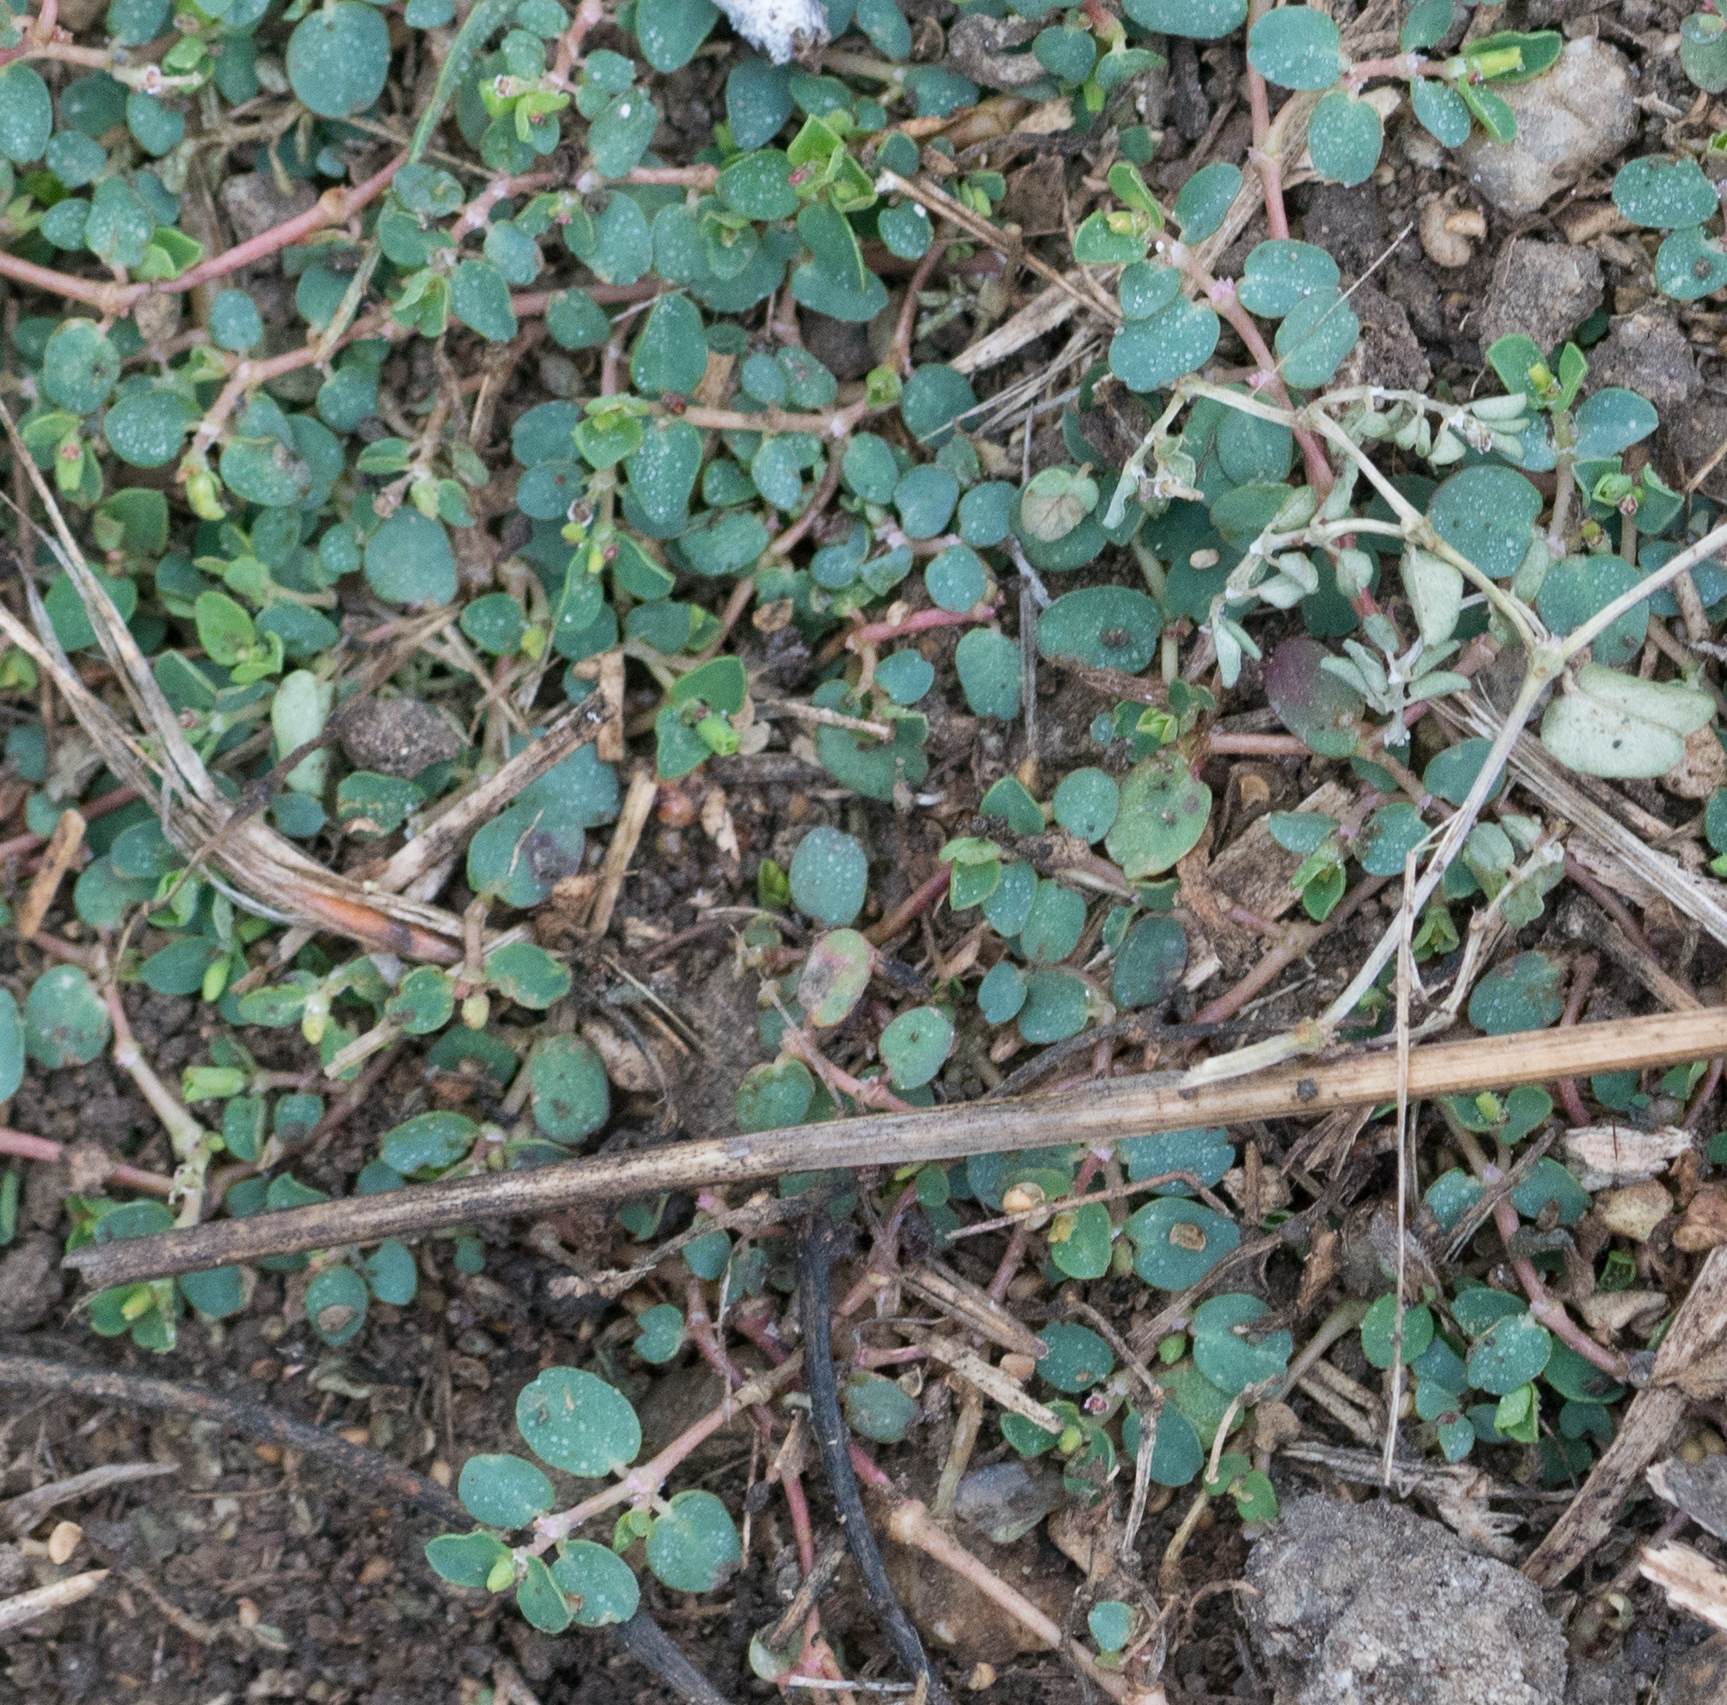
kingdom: Plantae
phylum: Tracheophyta
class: Magnoliopsida
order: Malpighiales
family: Euphorbiaceae
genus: Euphorbia
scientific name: Euphorbia serpens
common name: Matted sandmat
